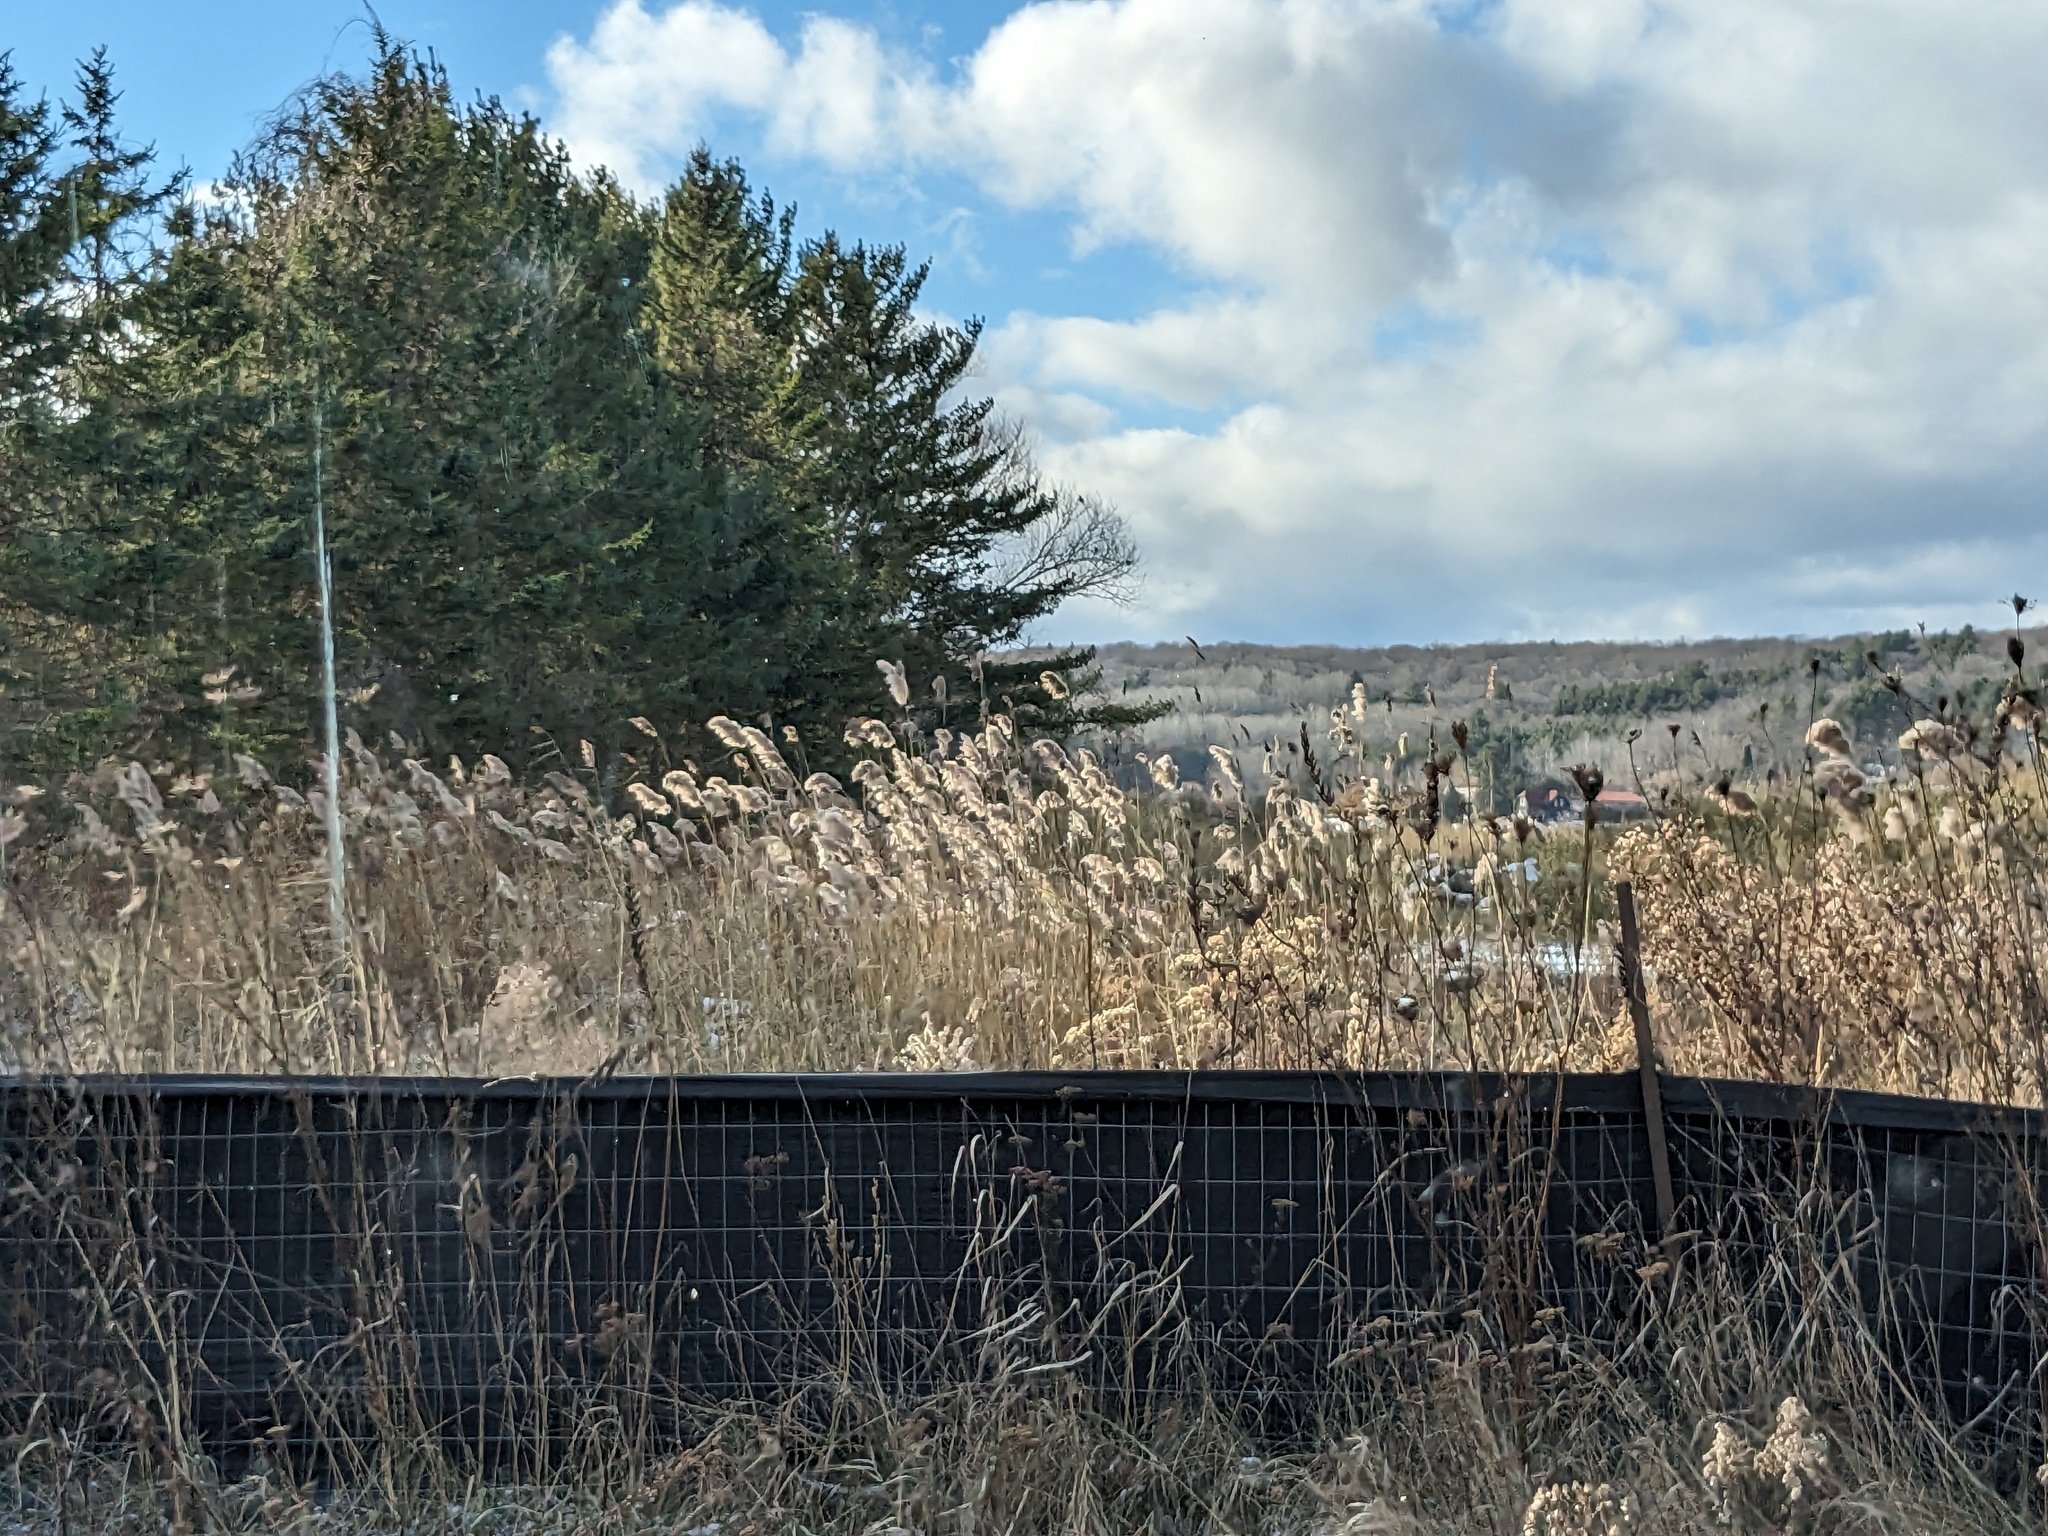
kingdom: Plantae
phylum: Tracheophyta
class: Liliopsida
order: Poales
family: Poaceae
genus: Phragmites
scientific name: Phragmites australis
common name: Common reed
